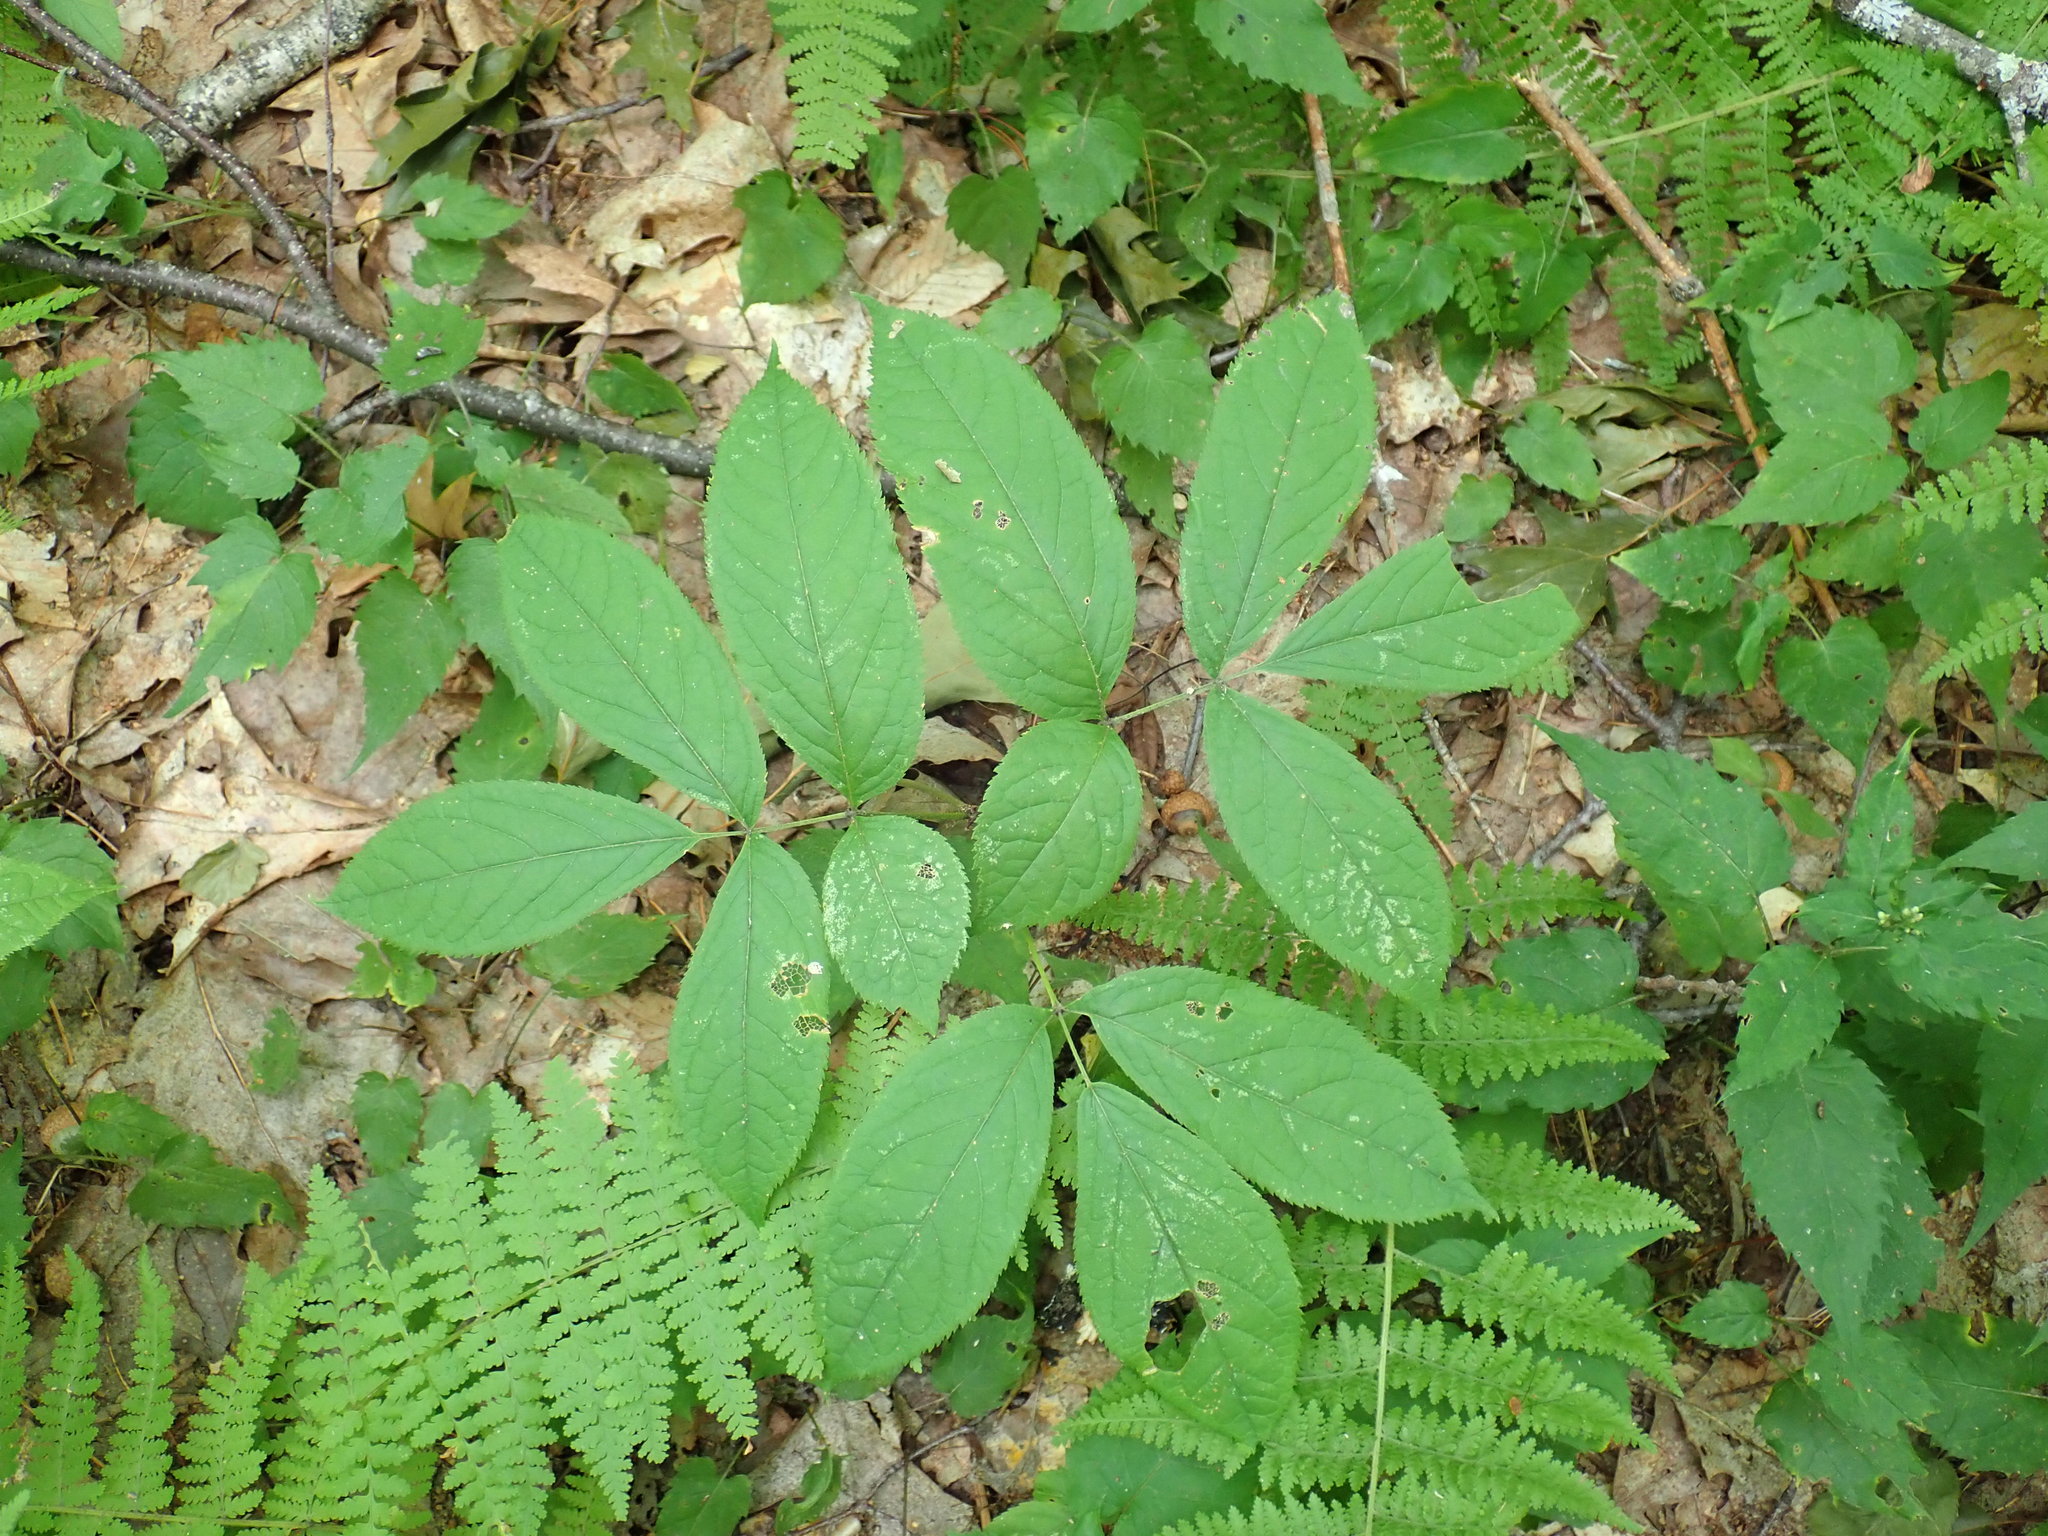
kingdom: Plantae
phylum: Tracheophyta
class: Magnoliopsida
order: Apiales
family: Araliaceae
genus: Aralia
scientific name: Aralia nudicaulis
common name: Wild sarsaparilla
